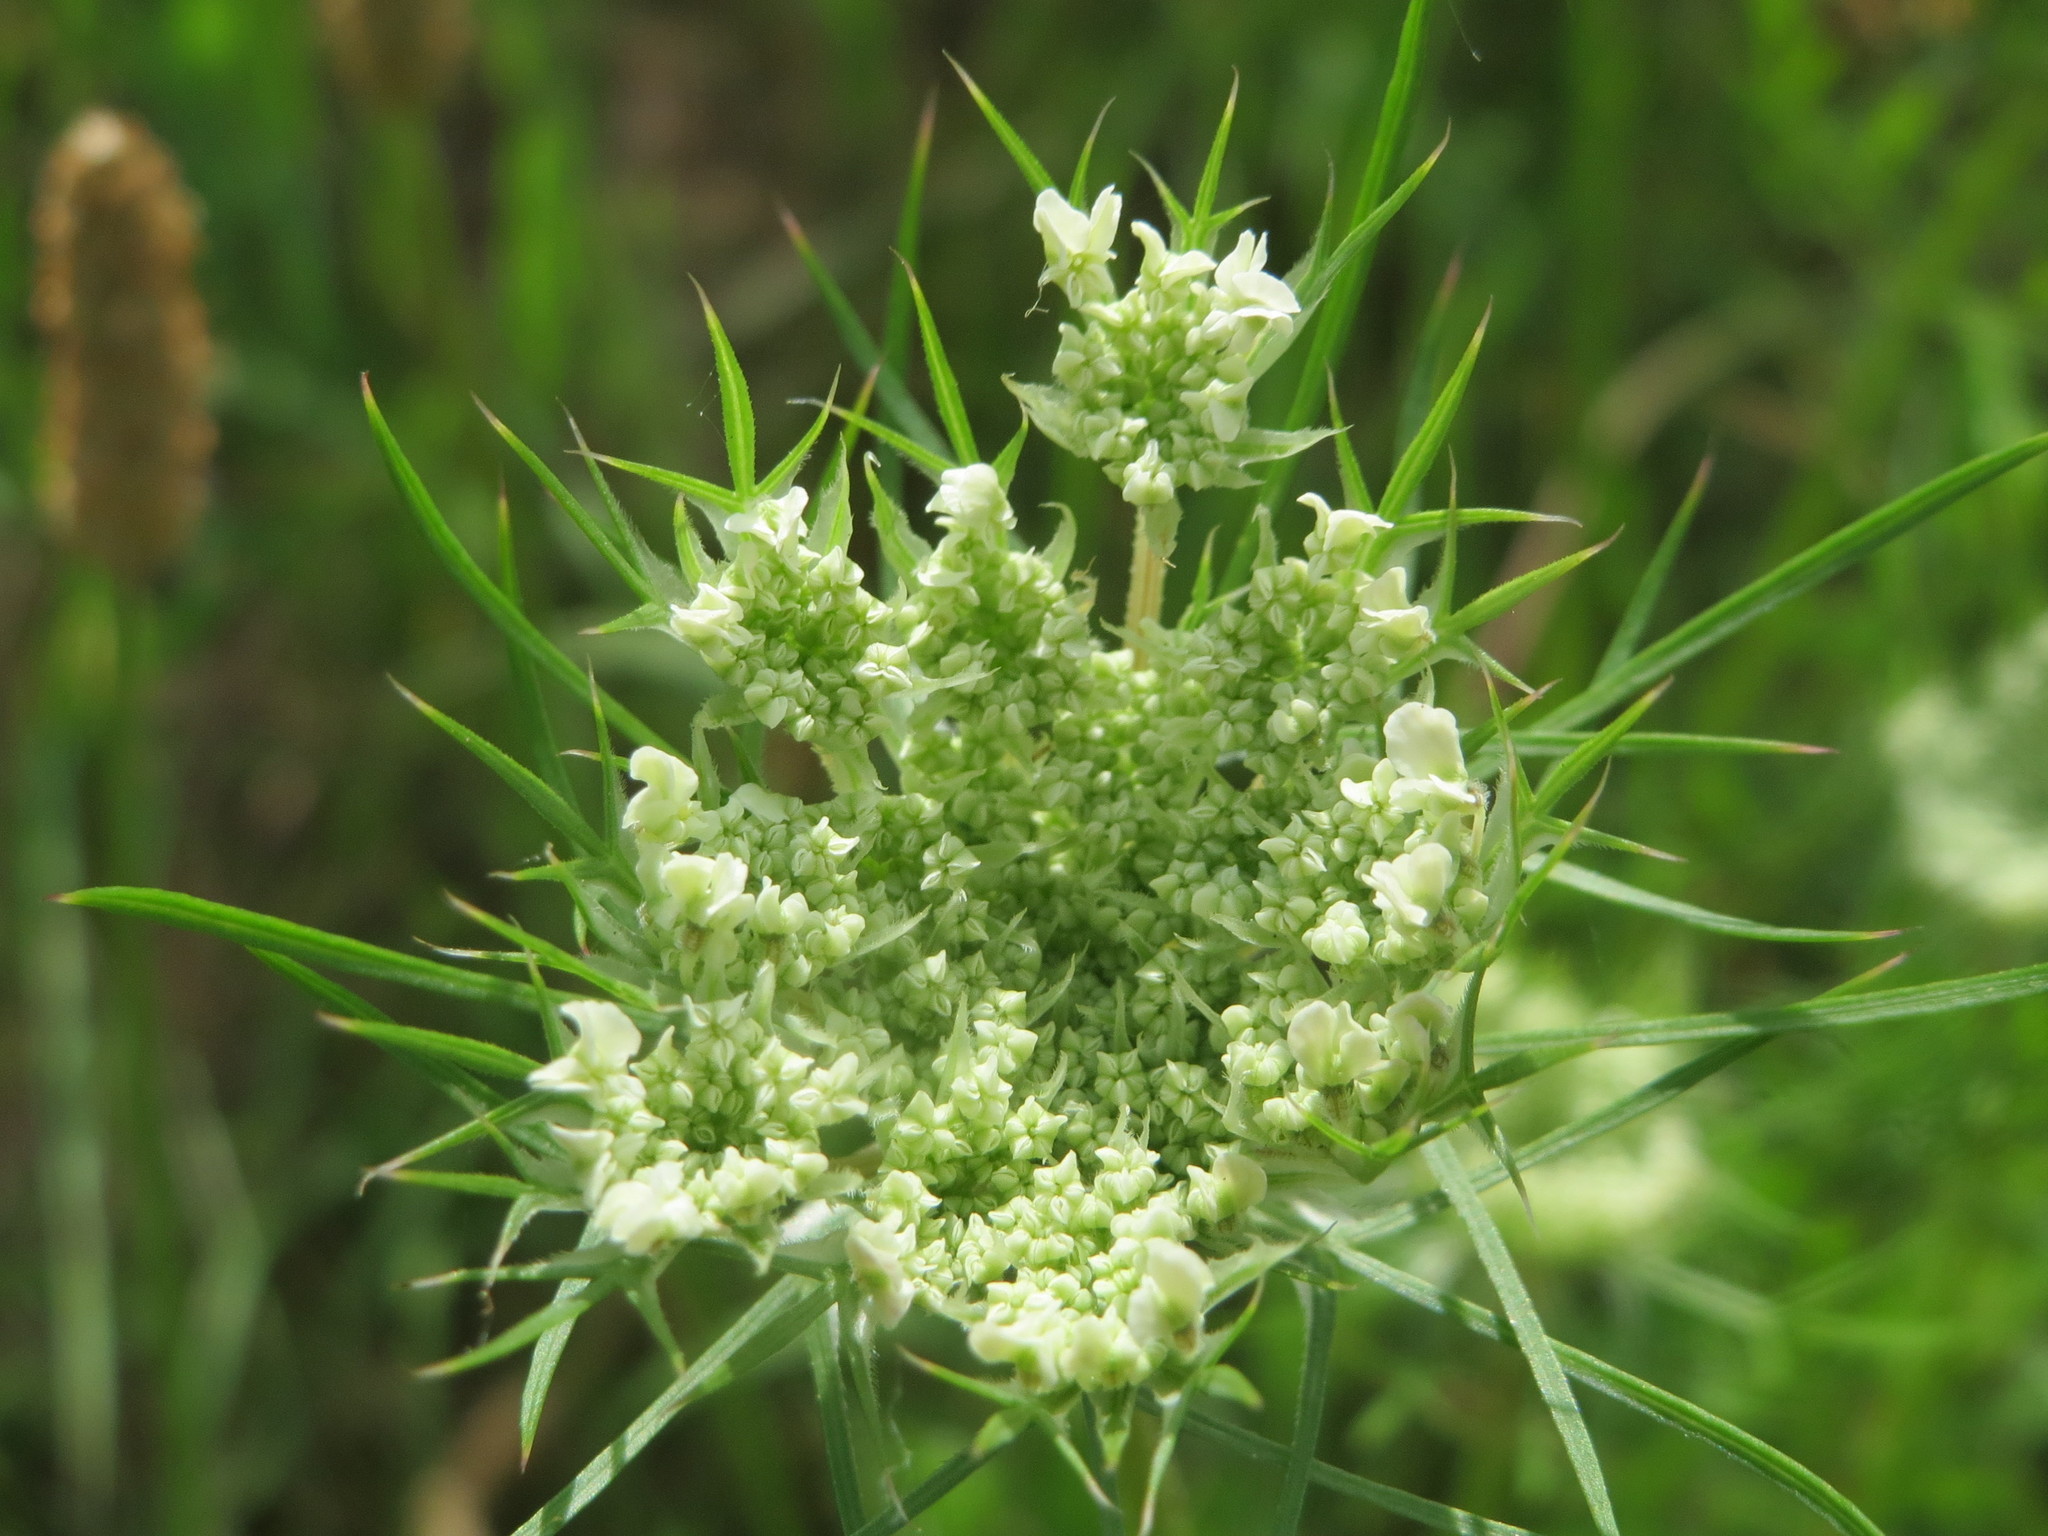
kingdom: Plantae
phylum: Tracheophyta
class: Magnoliopsida
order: Apiales
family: Apiaceae
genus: Daucus
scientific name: Daucus carota
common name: Wild carrot
